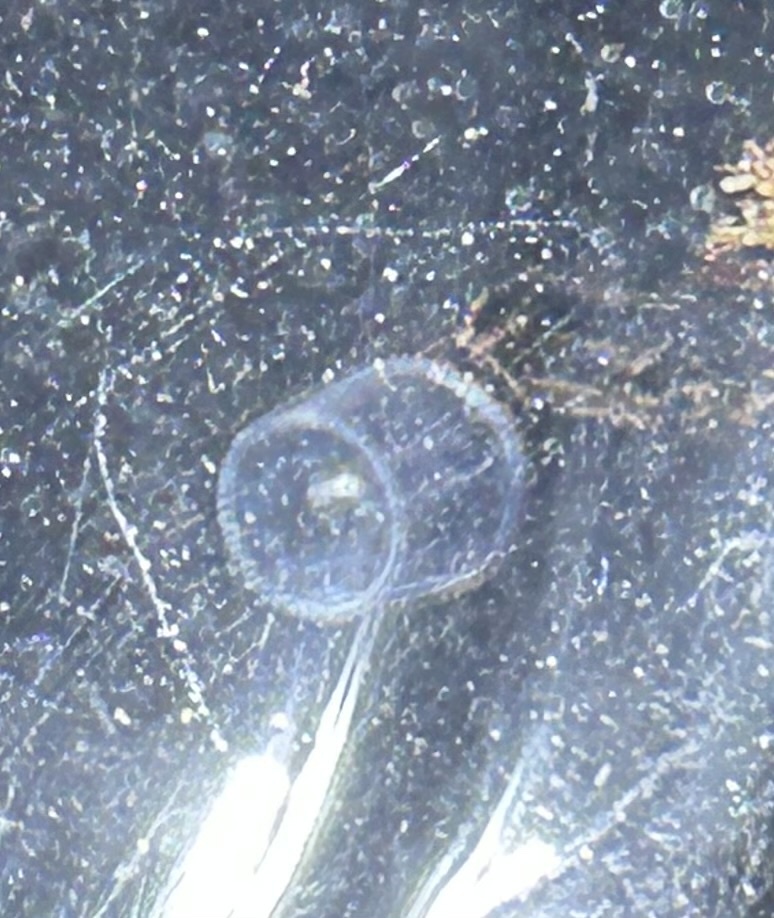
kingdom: Animalia
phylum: Cnidaria
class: Hydrozoa
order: Trachymedusae
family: Rhopalonematidae
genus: Aglantha
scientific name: Aglantha digitale
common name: Pink helmet
